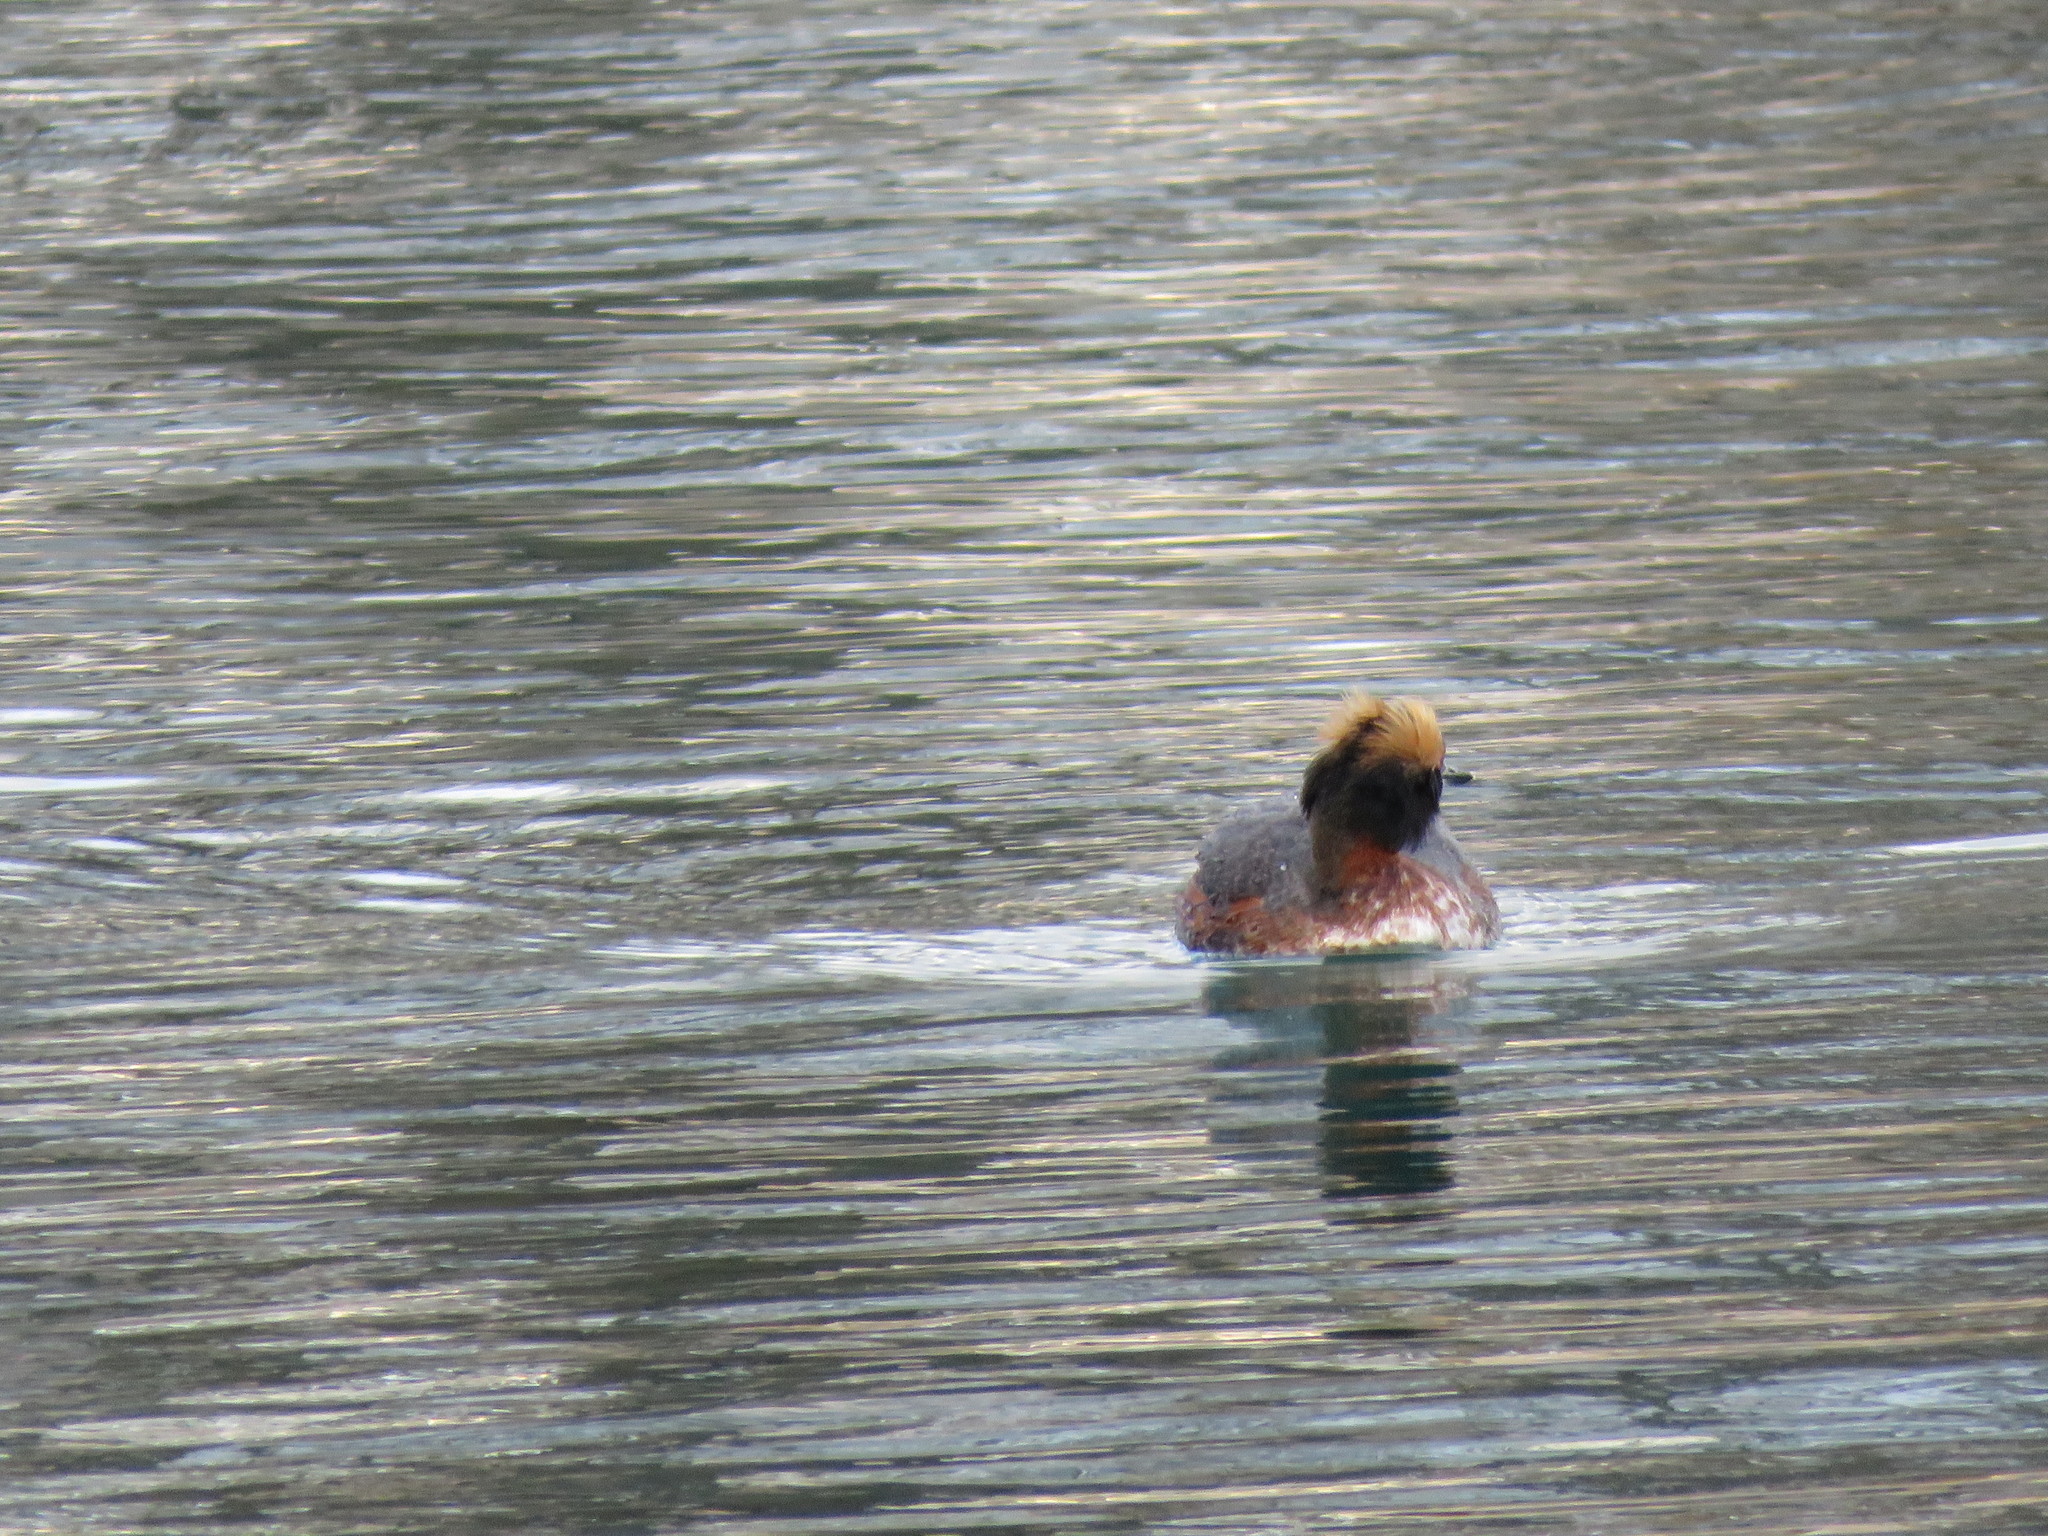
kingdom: Animalia
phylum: Chordata
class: Aves
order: Podicipediformes
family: Podicipedidae
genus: Podiceps
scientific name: Podiceps auritus
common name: Horned grebe
